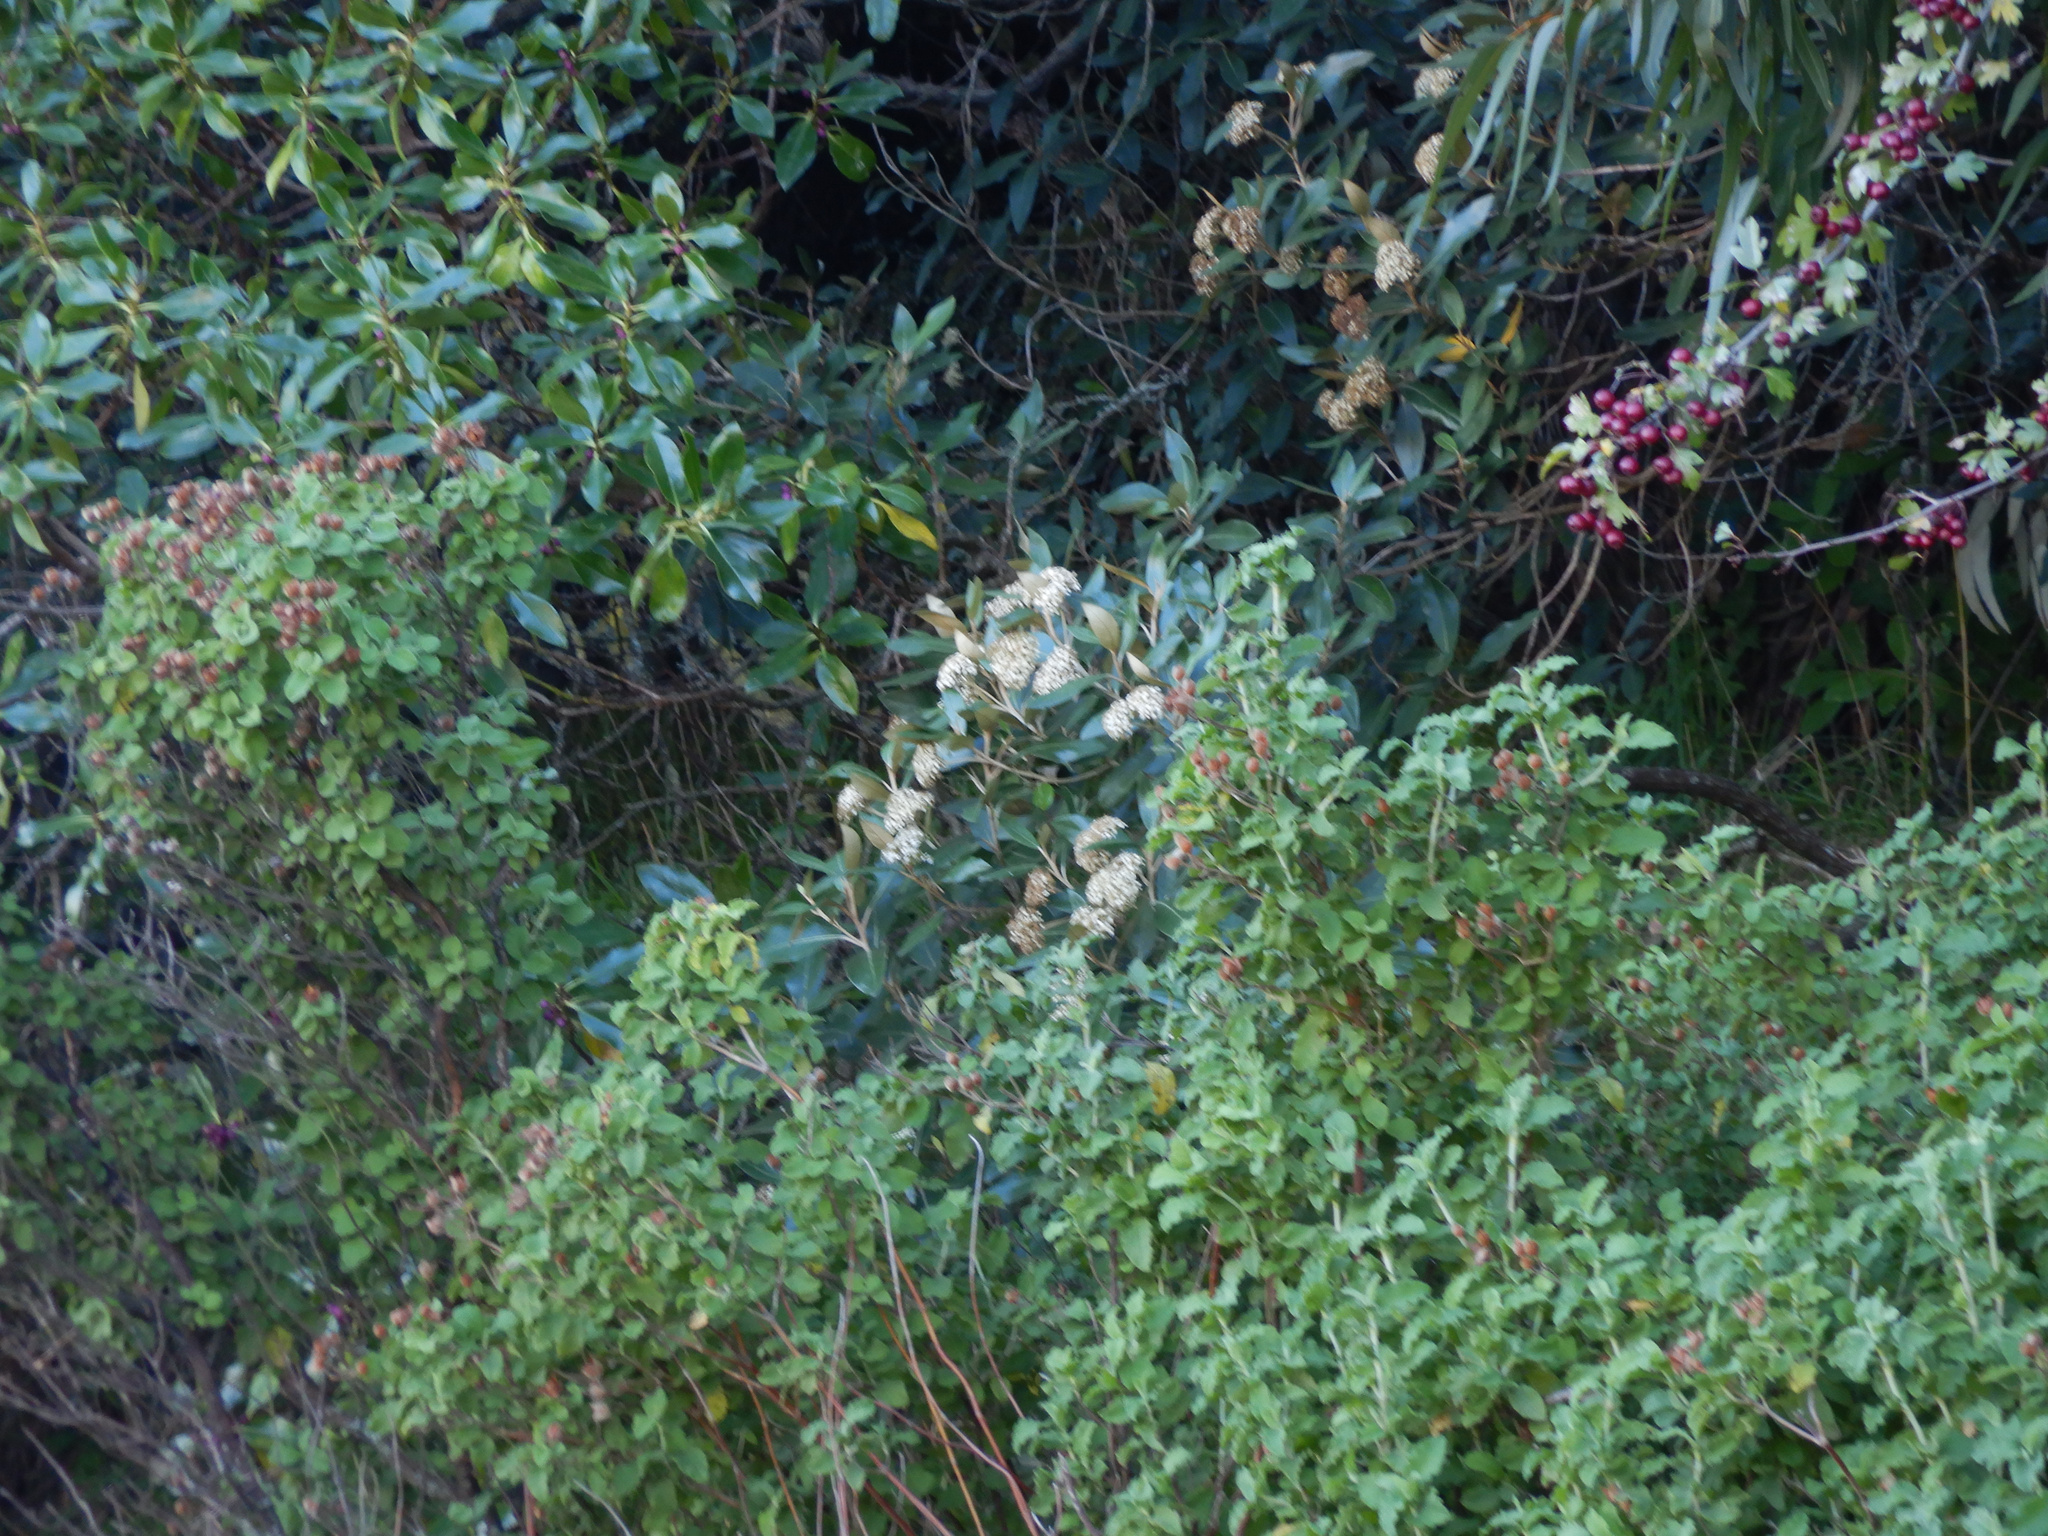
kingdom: Plantae
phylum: Tracheophyta
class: Magnoliopsida
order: Asterales
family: Asteraceae
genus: Olearia
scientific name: Olearia avicenniifolia
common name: Mangrove-leaf daisybush
